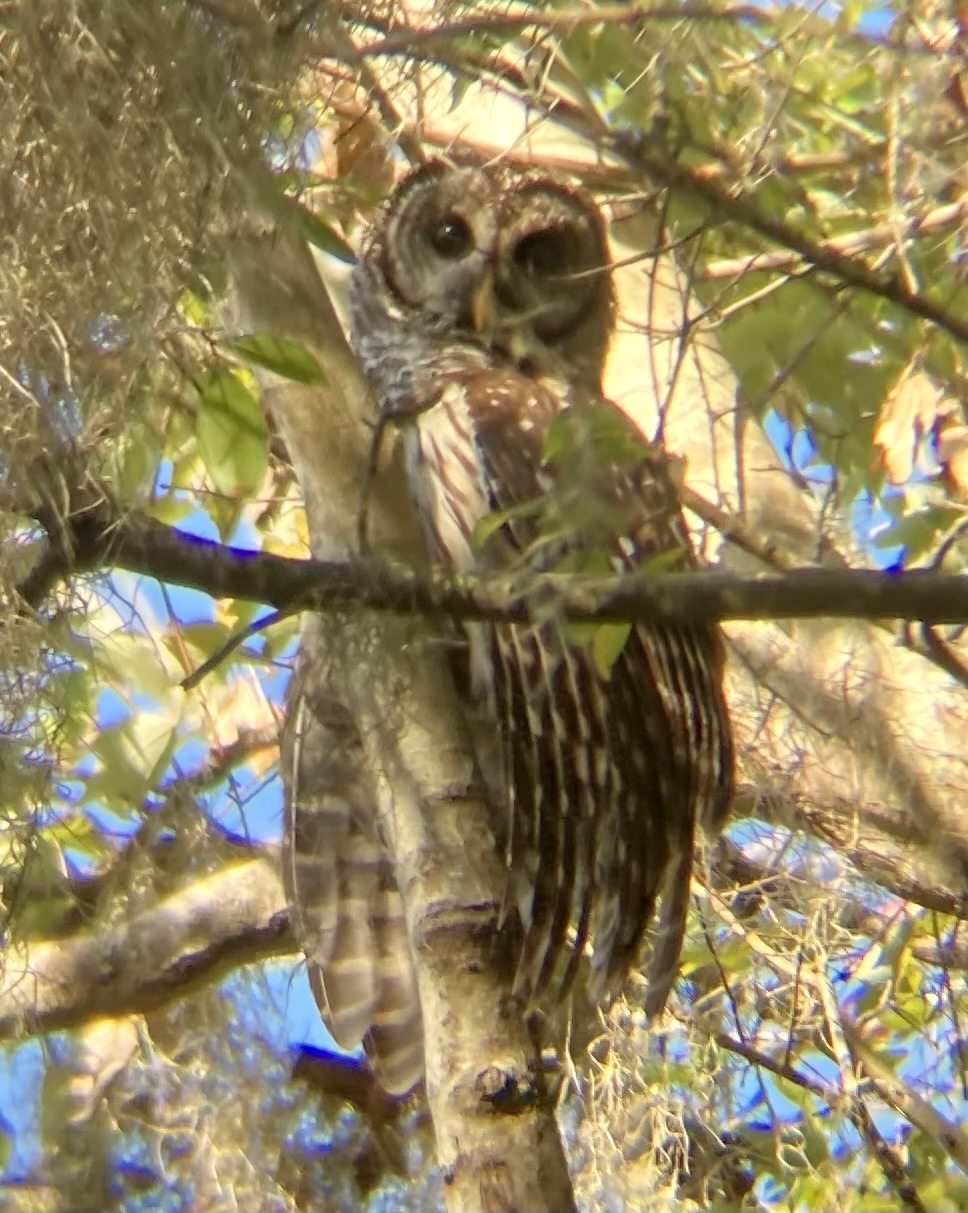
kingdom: Animalia
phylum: Chordata
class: Aves
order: Strigiformes
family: Strigidae
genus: Strix
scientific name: Strix varia
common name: Barred owl
